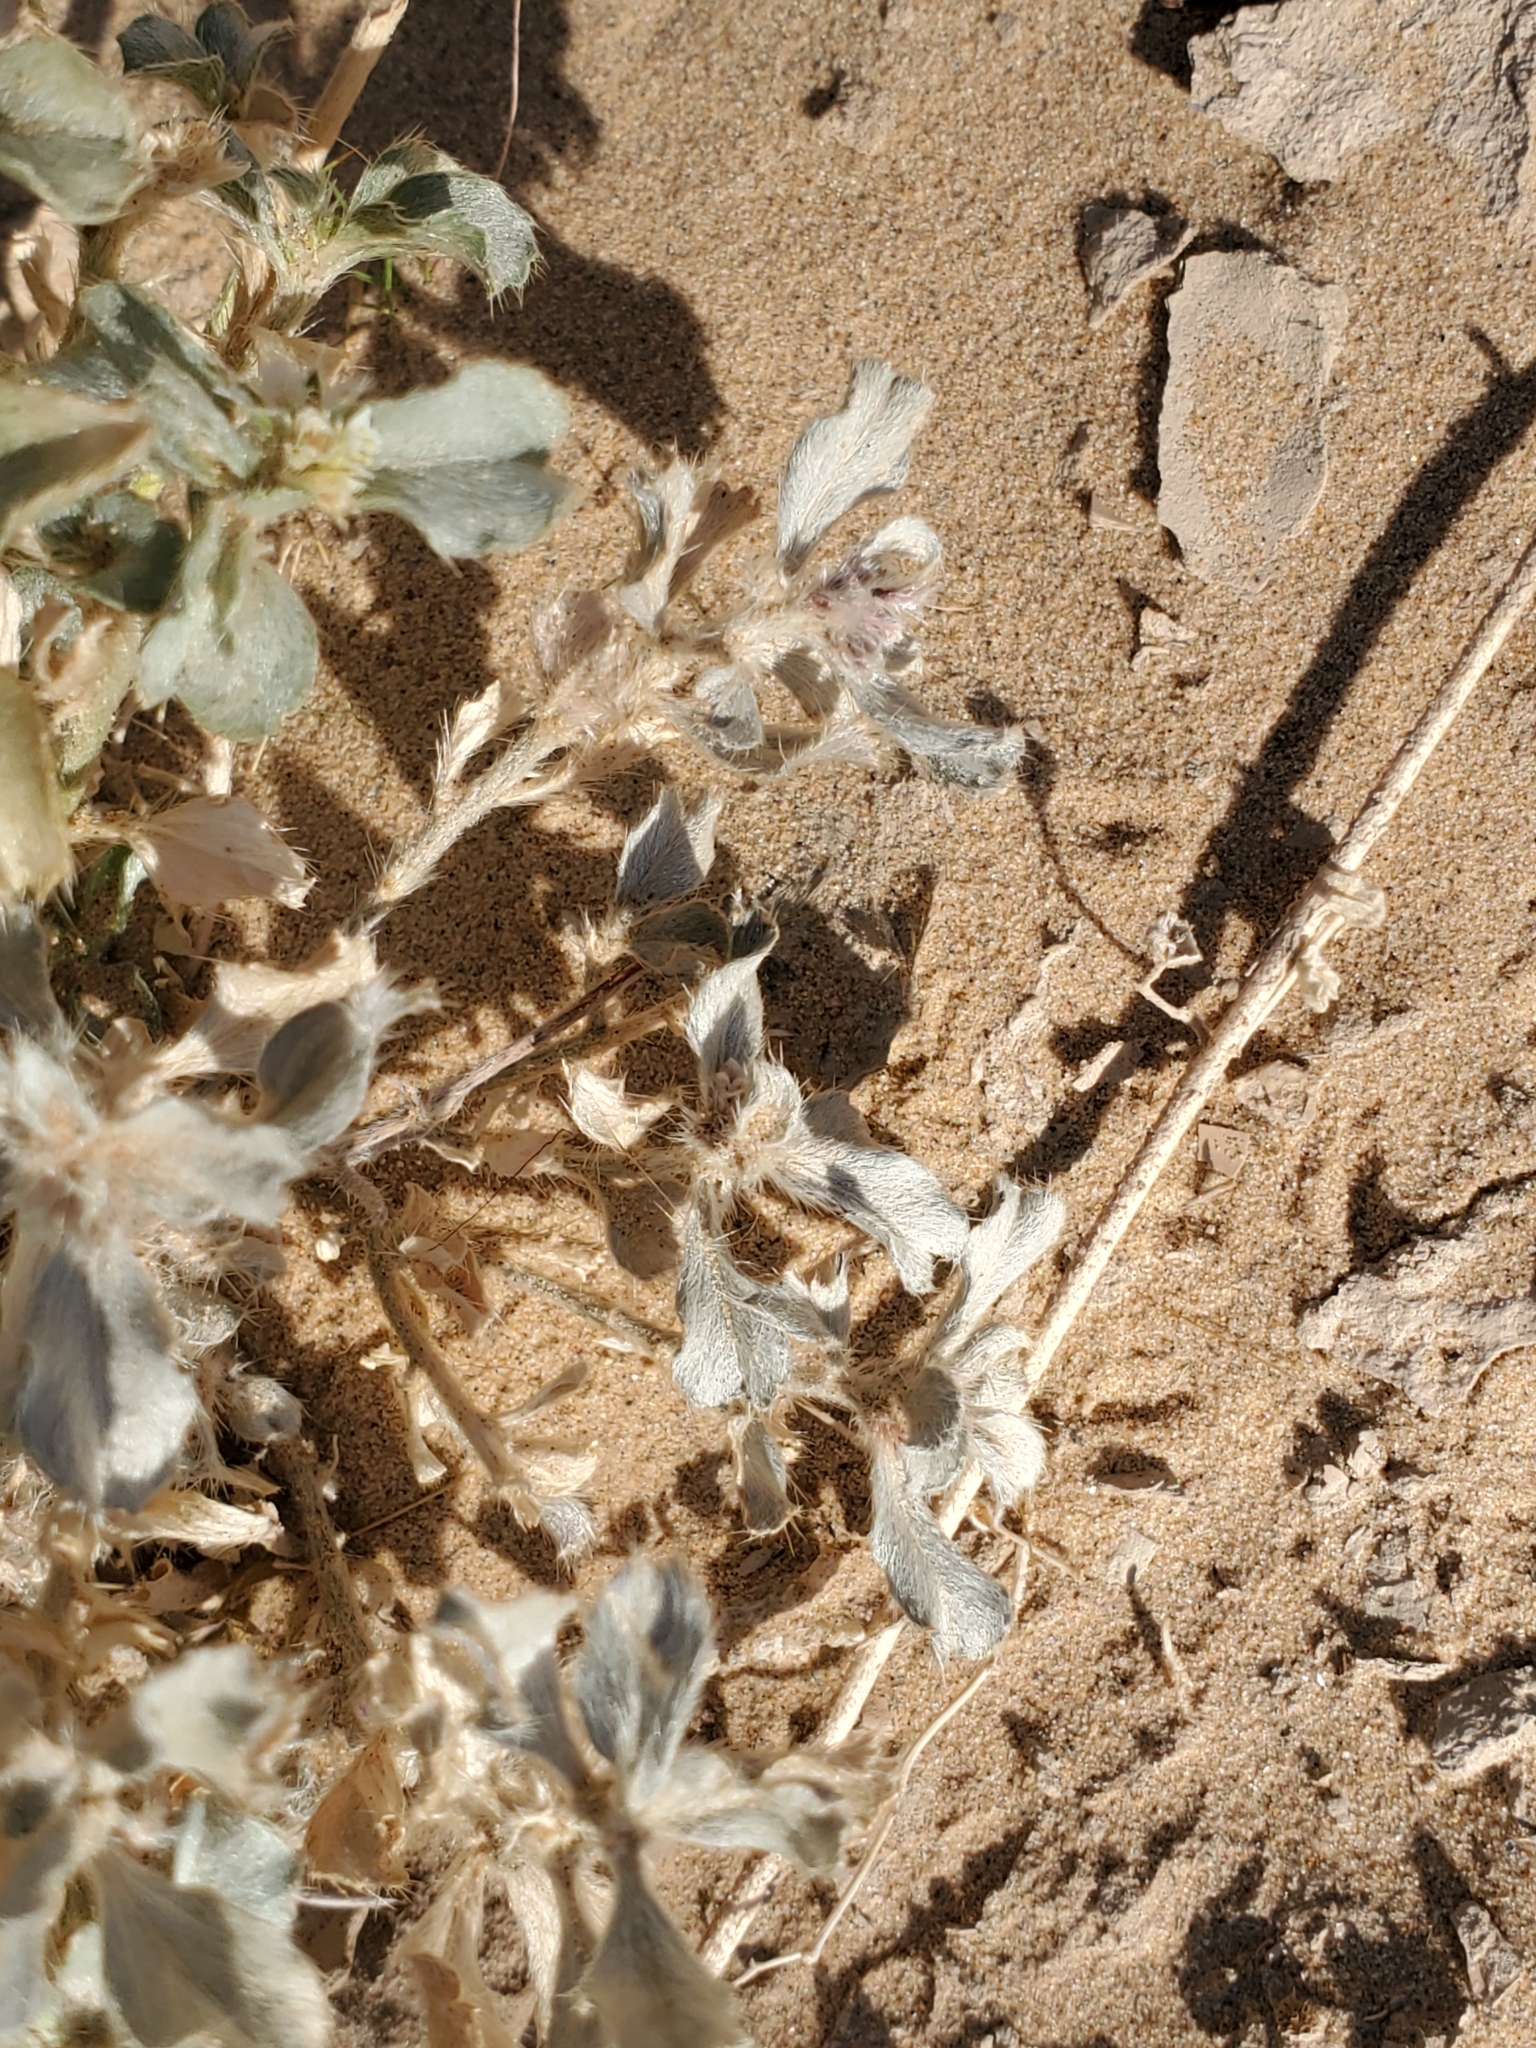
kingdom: Plantae
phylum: Tracheophyta
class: Magnoliopsida
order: Malpighiales
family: Euphorbiaceae
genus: Ditaxis
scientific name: Ditaxis serrata
